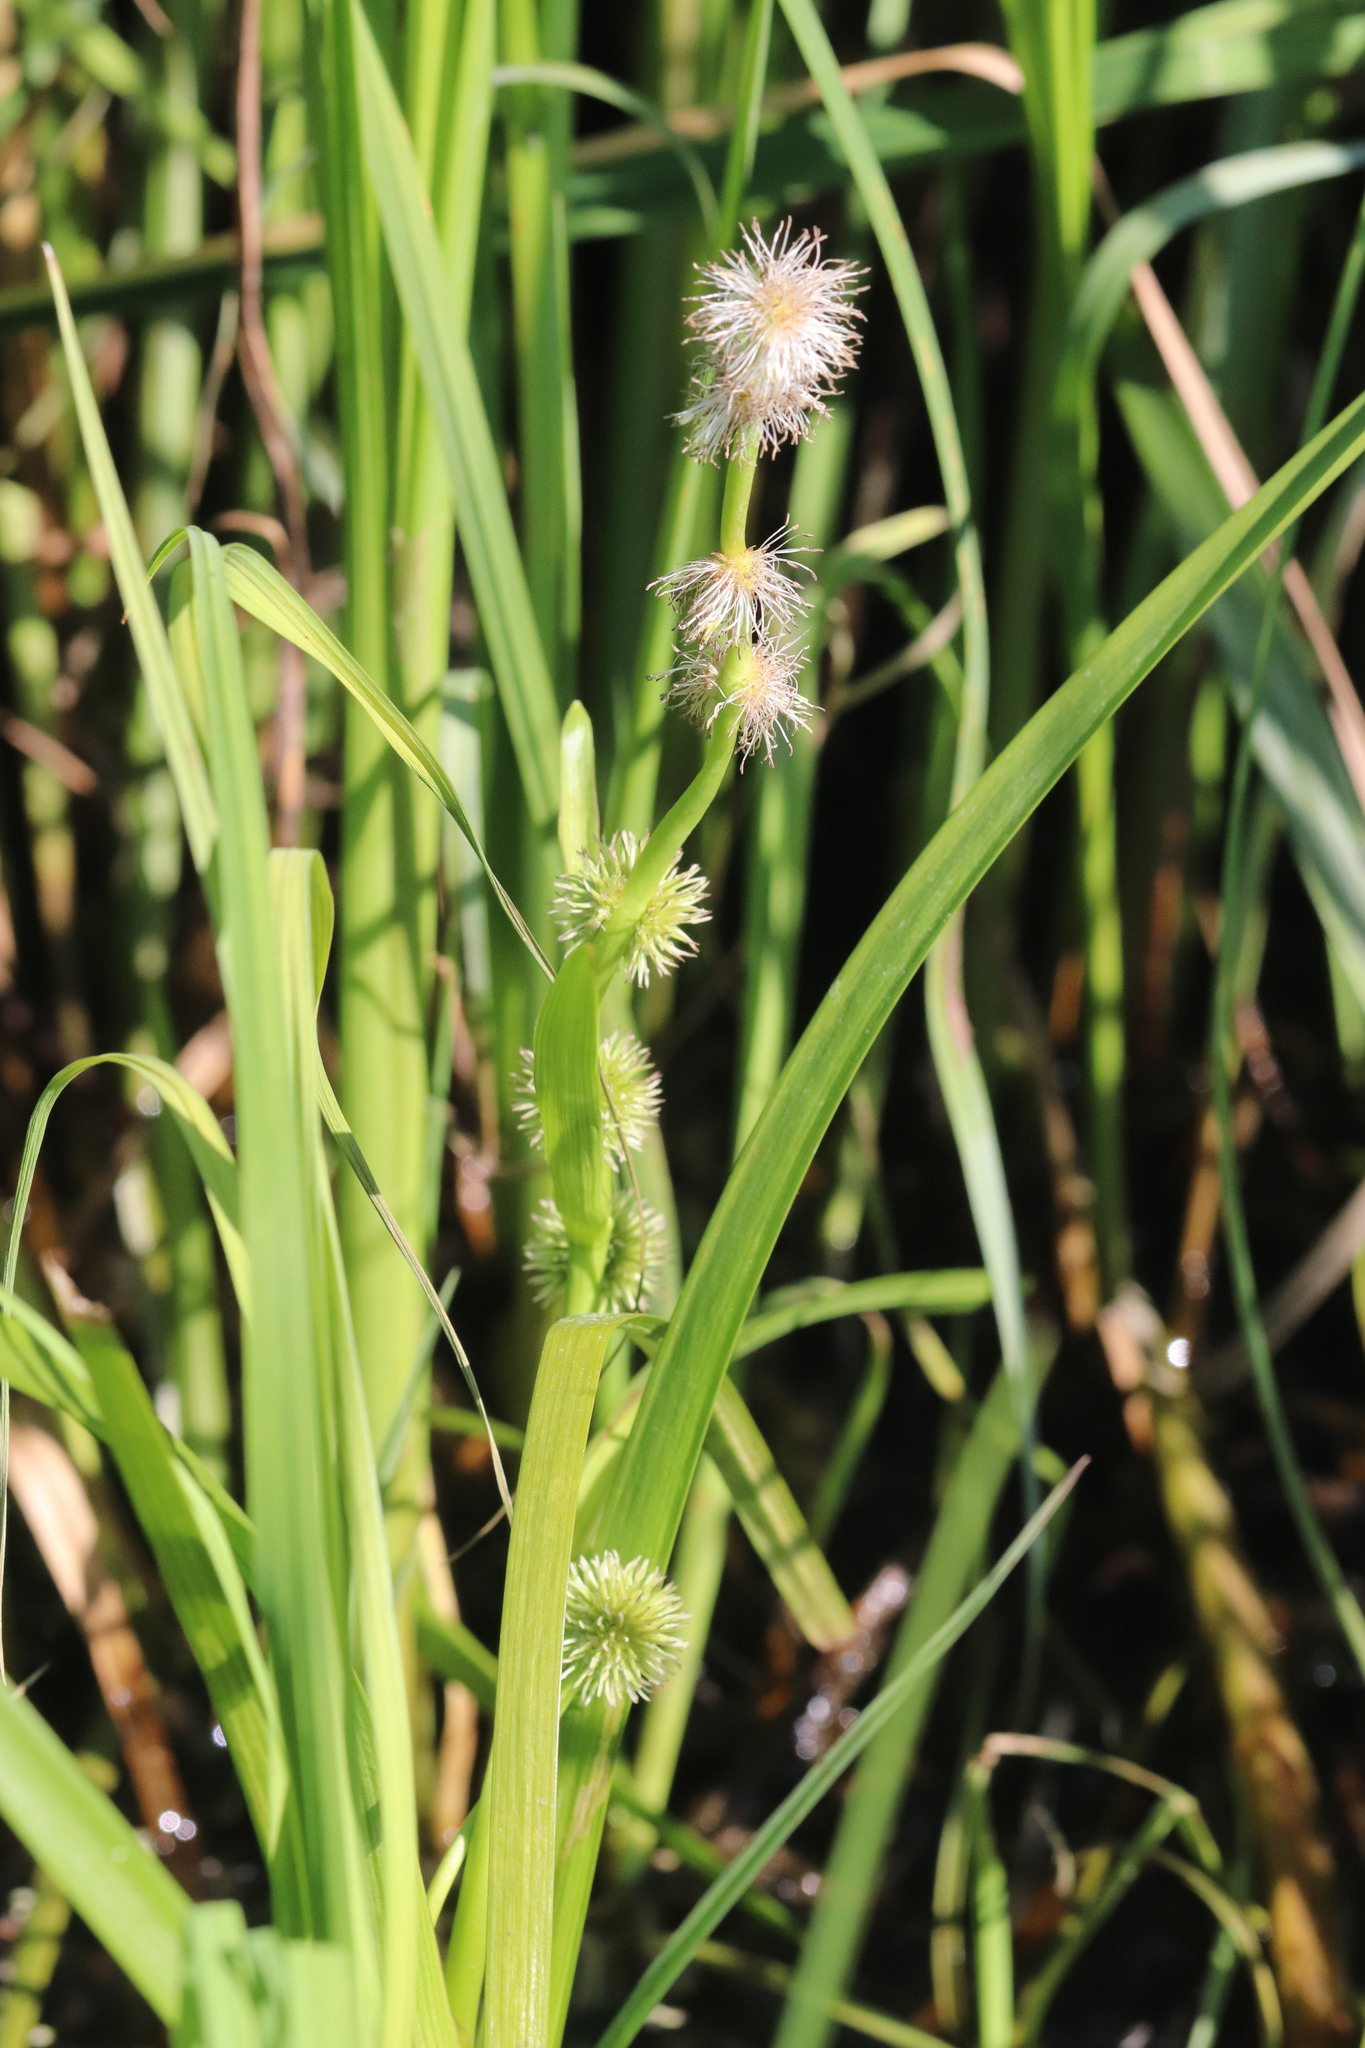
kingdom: Plantae
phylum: Tracheophyta
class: Liliopsida
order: Poales
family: Typhaceae
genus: Sparganium
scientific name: Sparganium emersum
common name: Unbranched bur-reed
